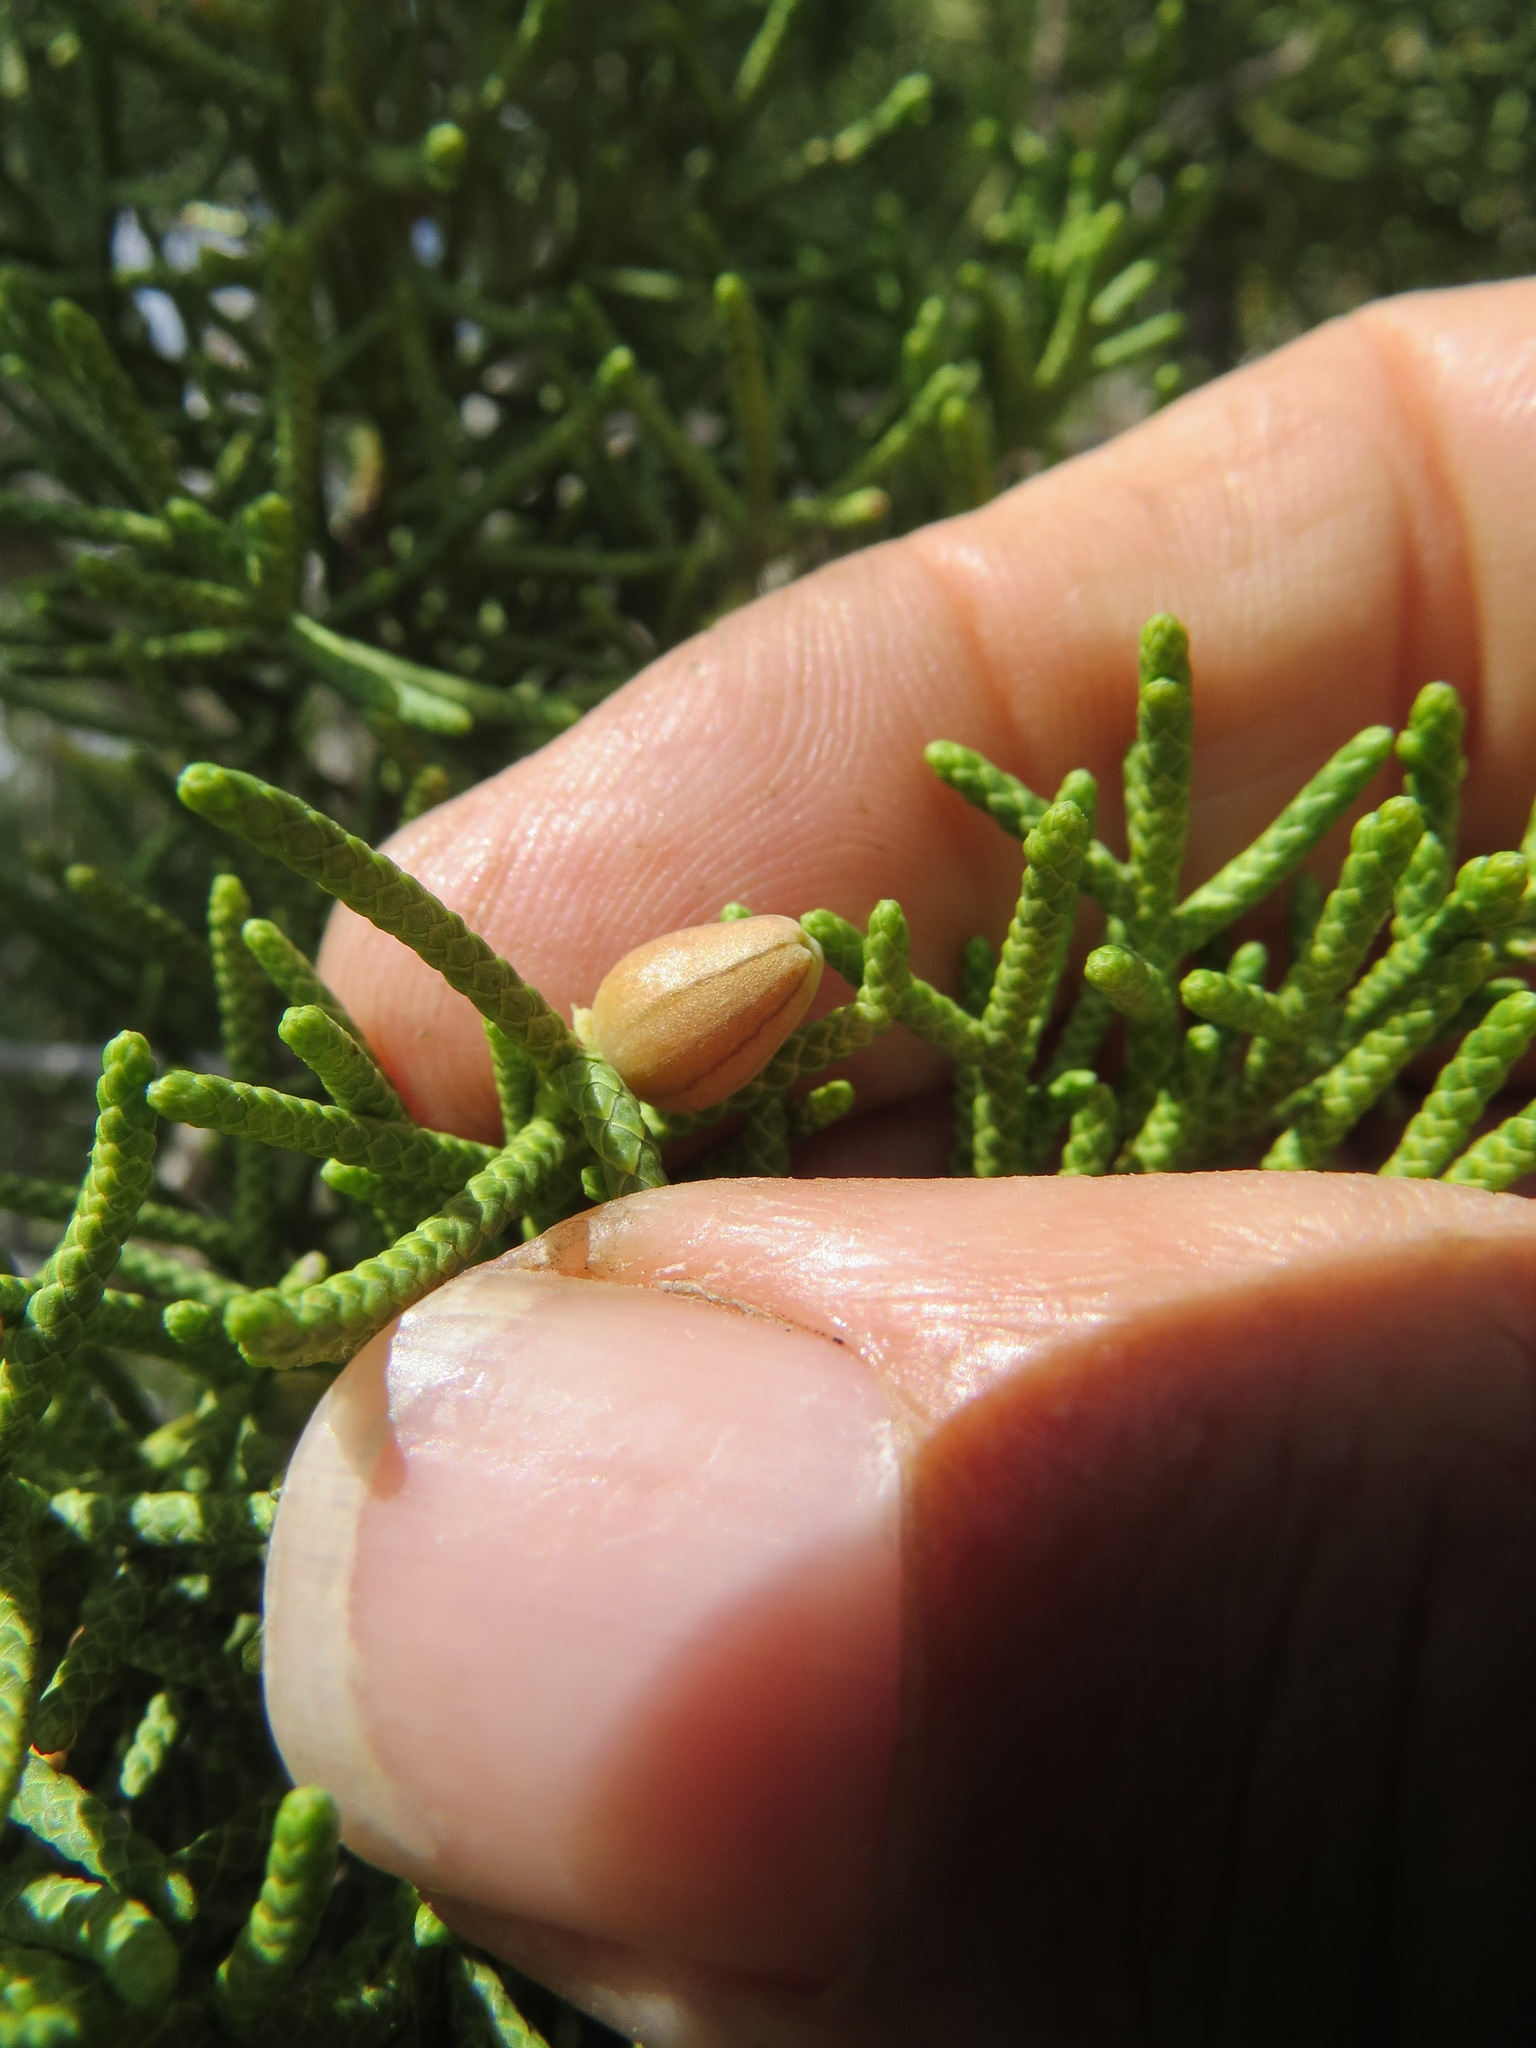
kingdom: Animalia
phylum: Arthropoda
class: Insecta
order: Diptera
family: Cecidomyiidae
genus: Walshomyia
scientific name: Walshomyia juniperina
